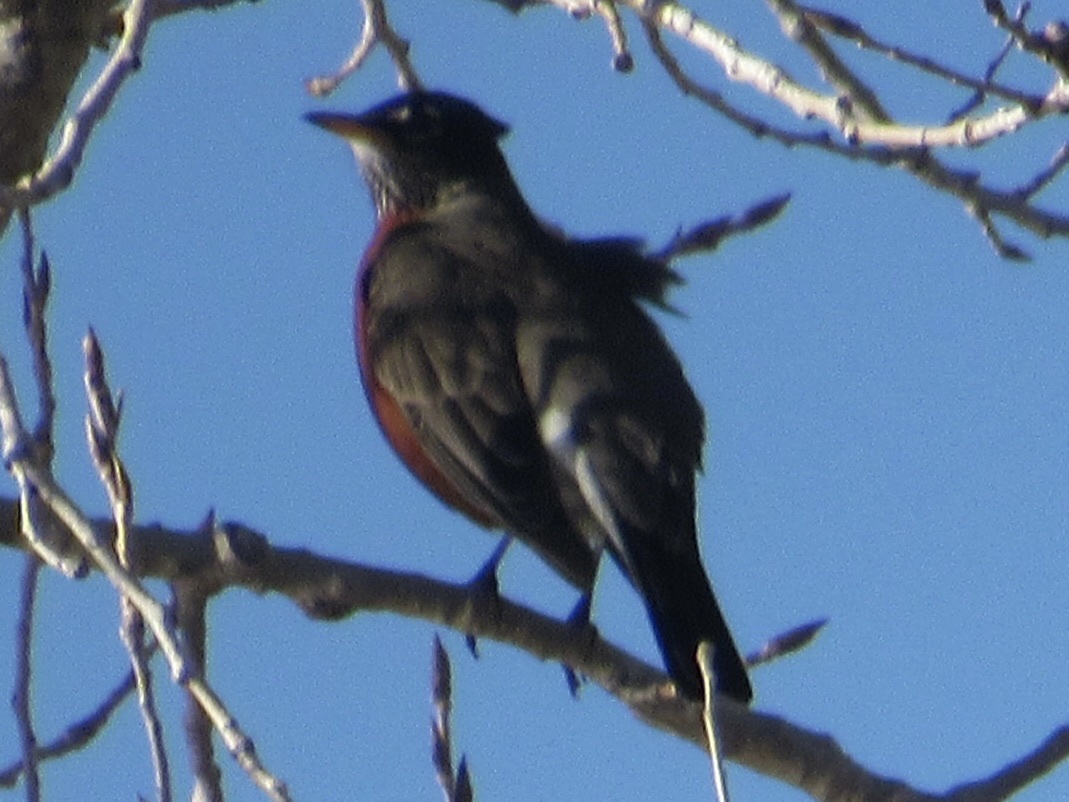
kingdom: Animalia
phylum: Chordata
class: Aves
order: Passeriformes
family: Turdidae
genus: Turdus
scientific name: Turdus migratorius
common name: American robin
